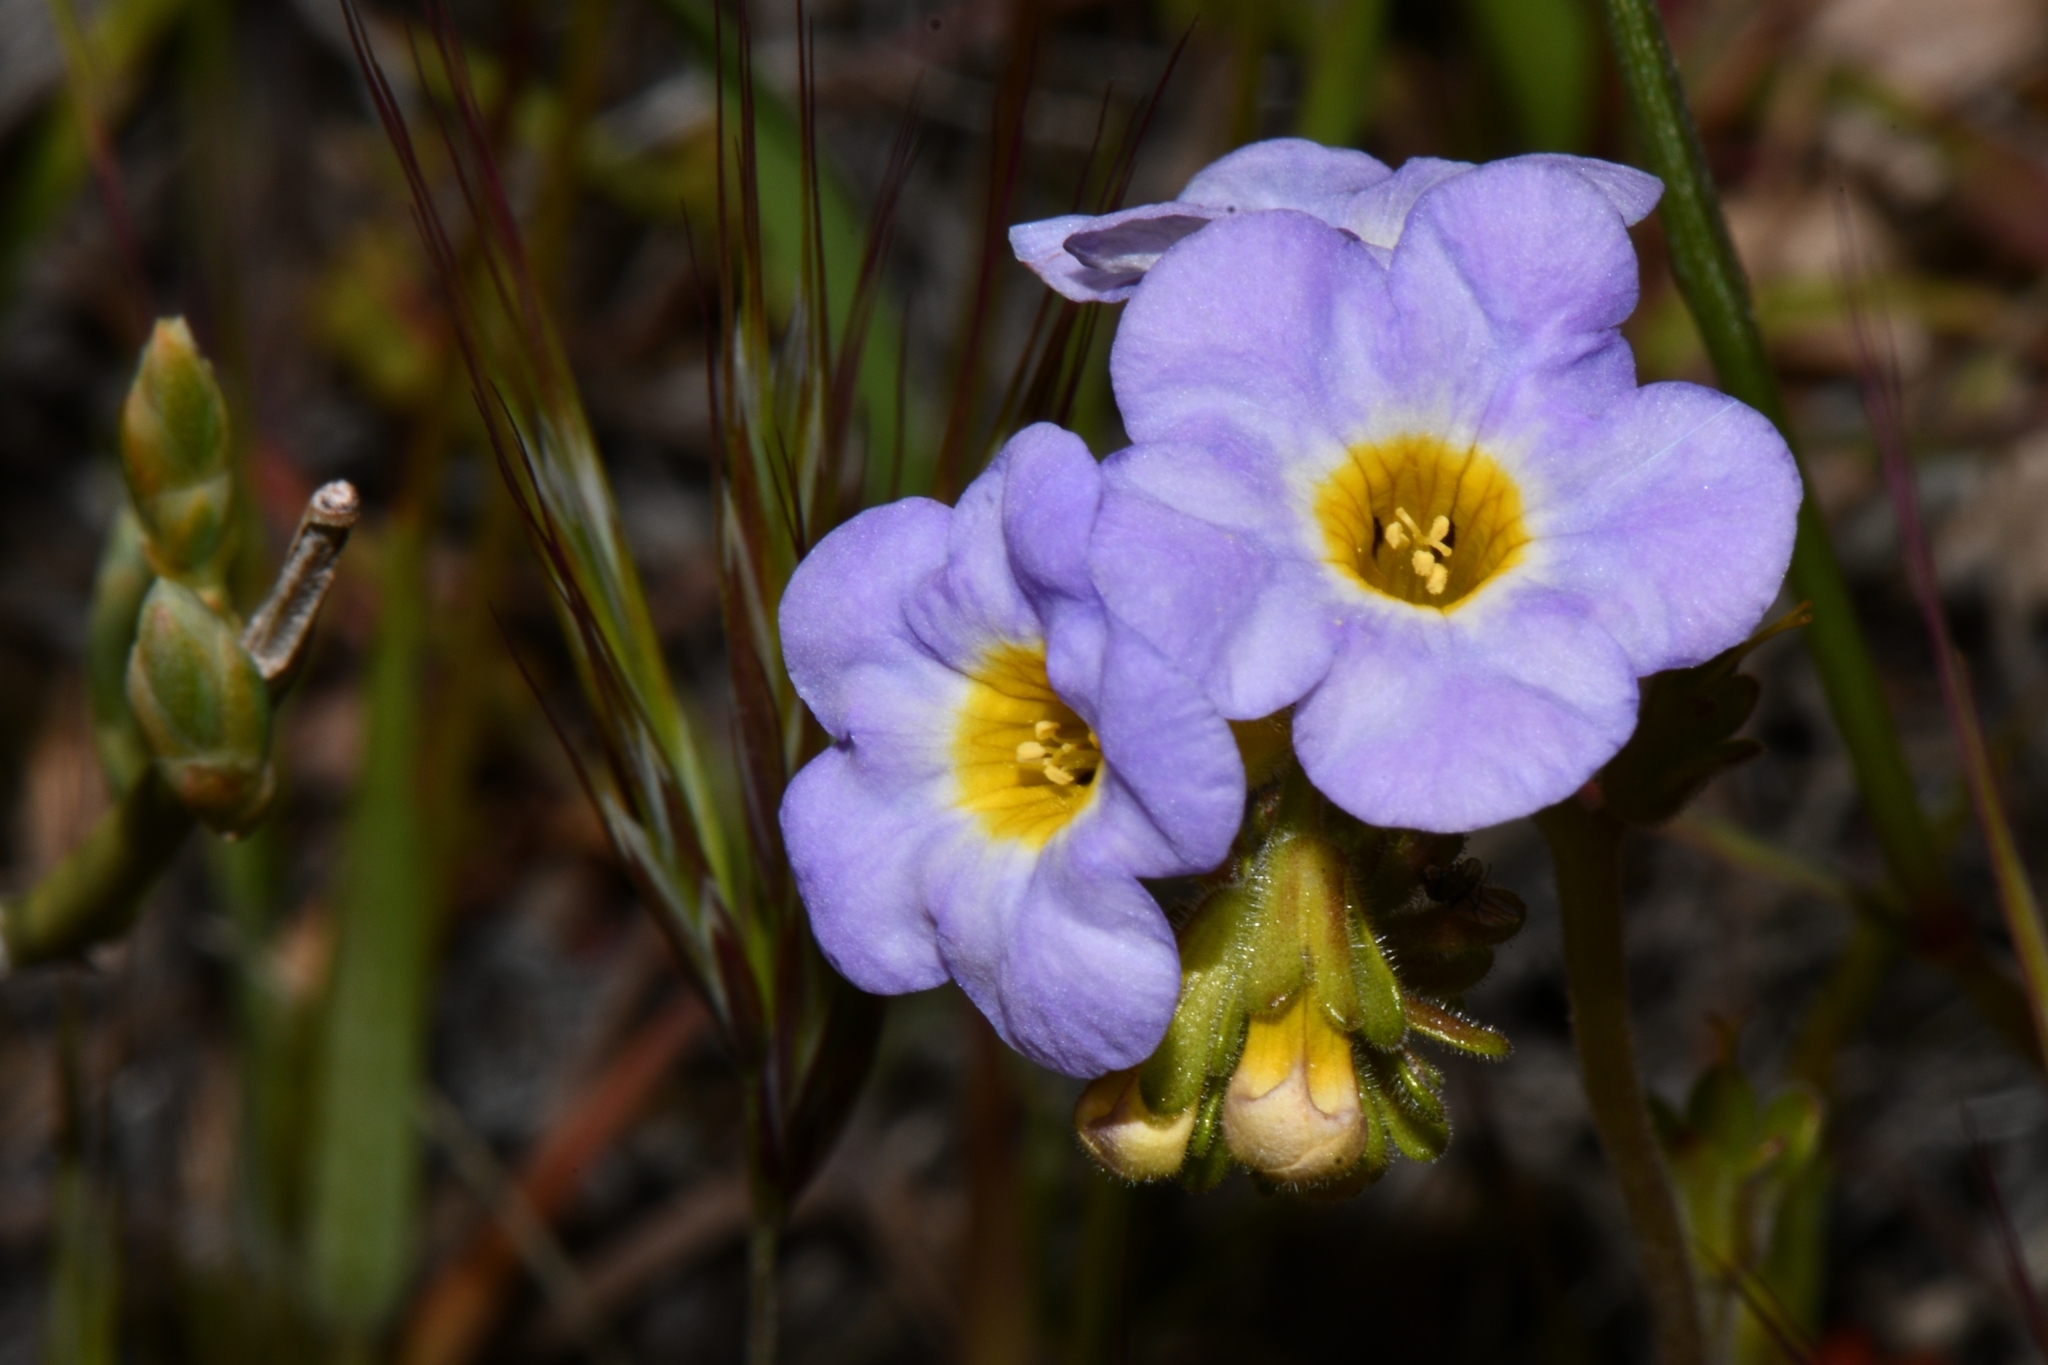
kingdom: Plantae
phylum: Tracheophyta
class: Magnoliopsida
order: Boraginales
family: Hydrophyllaceae
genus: Phacelia
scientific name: Phacelia fremontii
